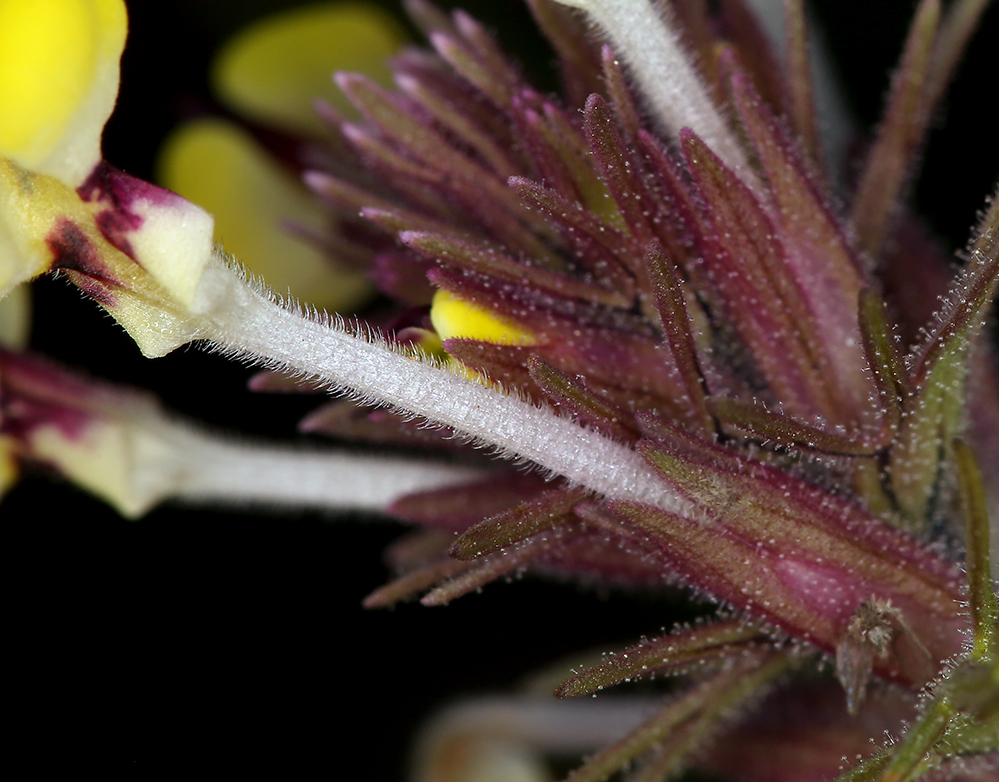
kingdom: Plantae
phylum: Tracheophyta
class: Magnoliopsida
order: Lamiales
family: Orobanchaceae
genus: Triphysaria
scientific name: Triphysaria eriantha
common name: Johnny-tuck
